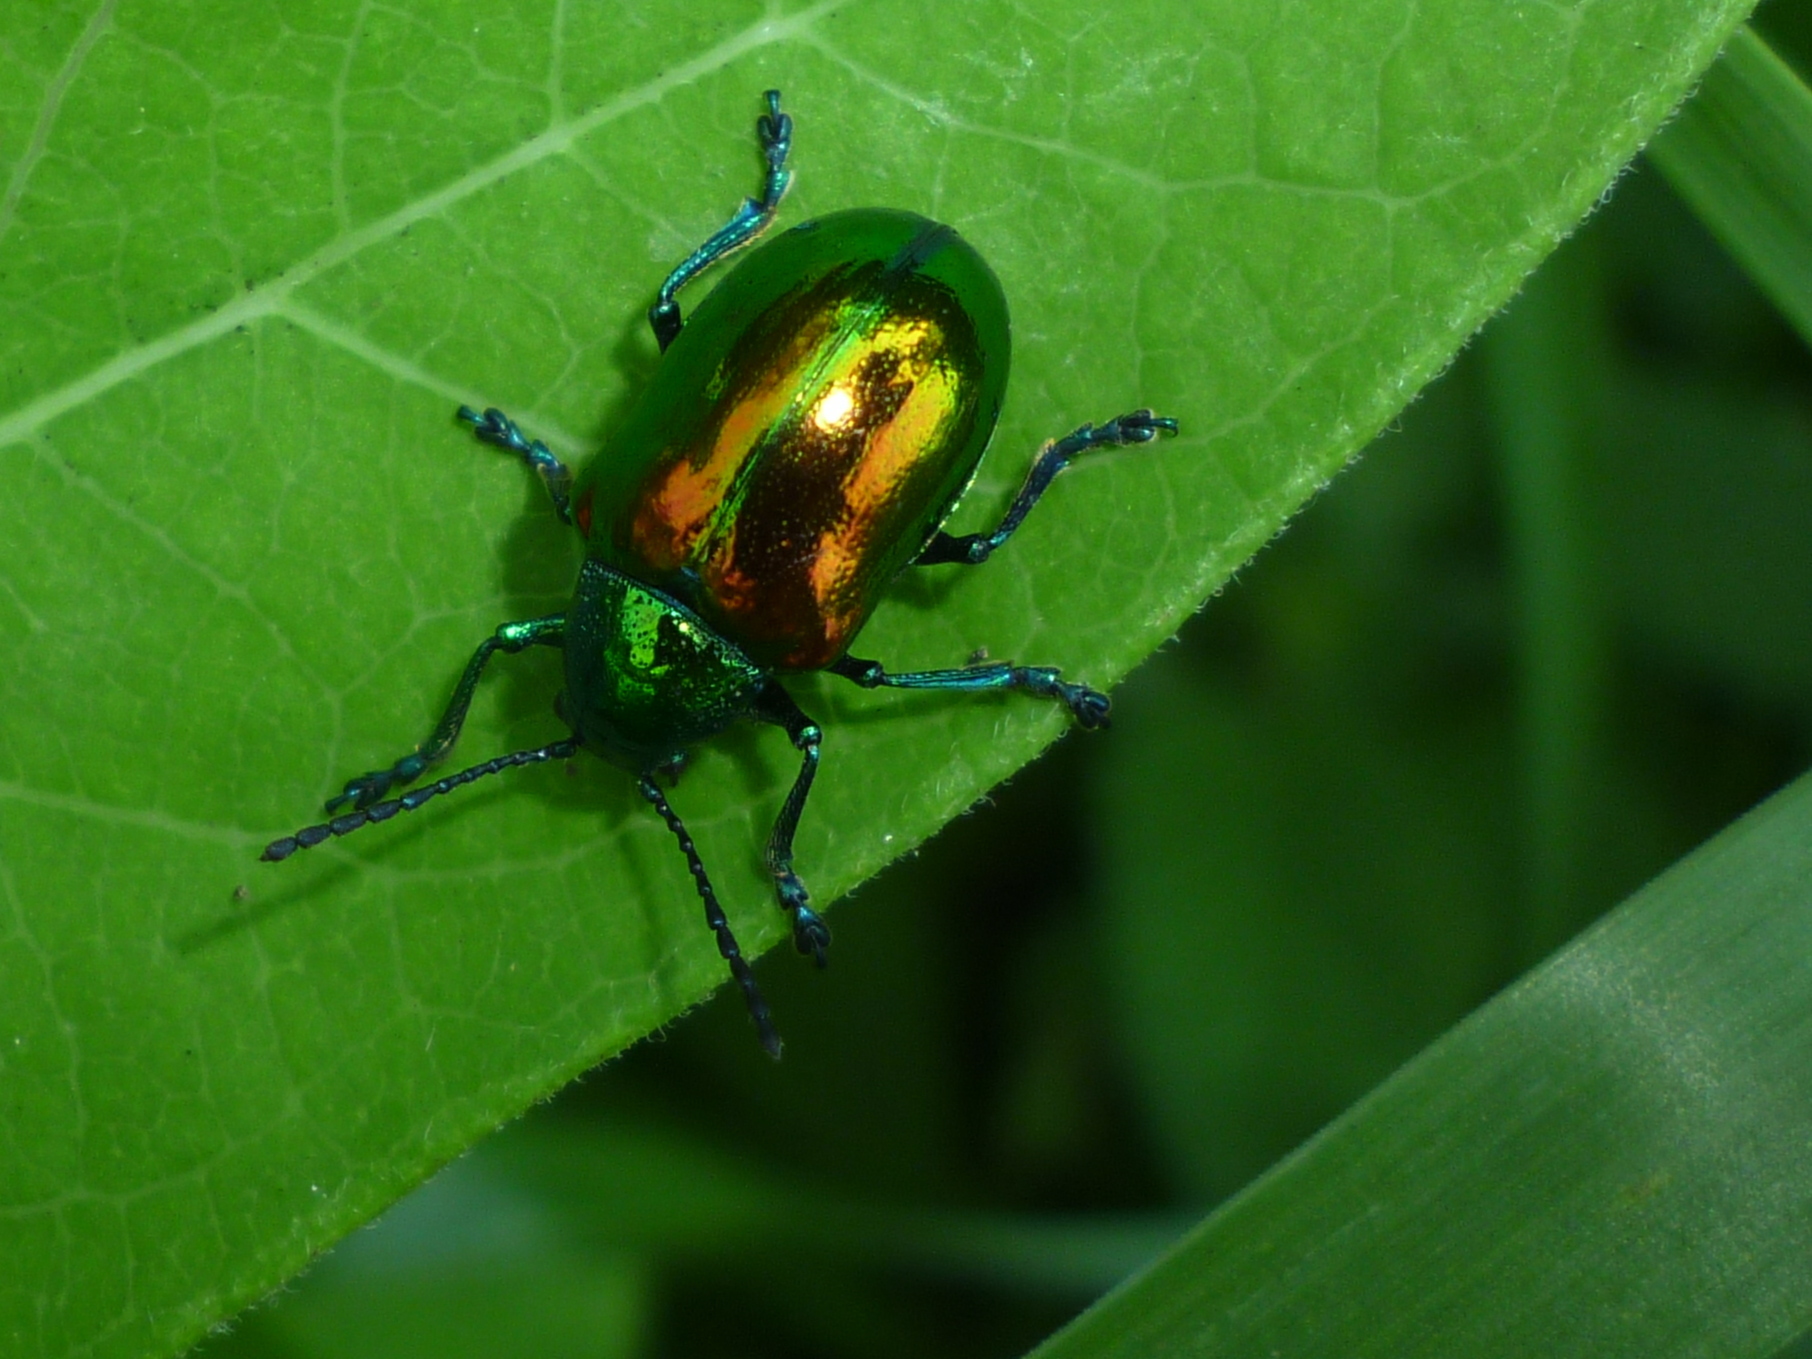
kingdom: Animalia
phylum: Arthropoda
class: Insecta
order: Coleoptera
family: Chrysomelidae
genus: Chrysochus
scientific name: Chrysochus auratus
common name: Dogbane leaf beetle
